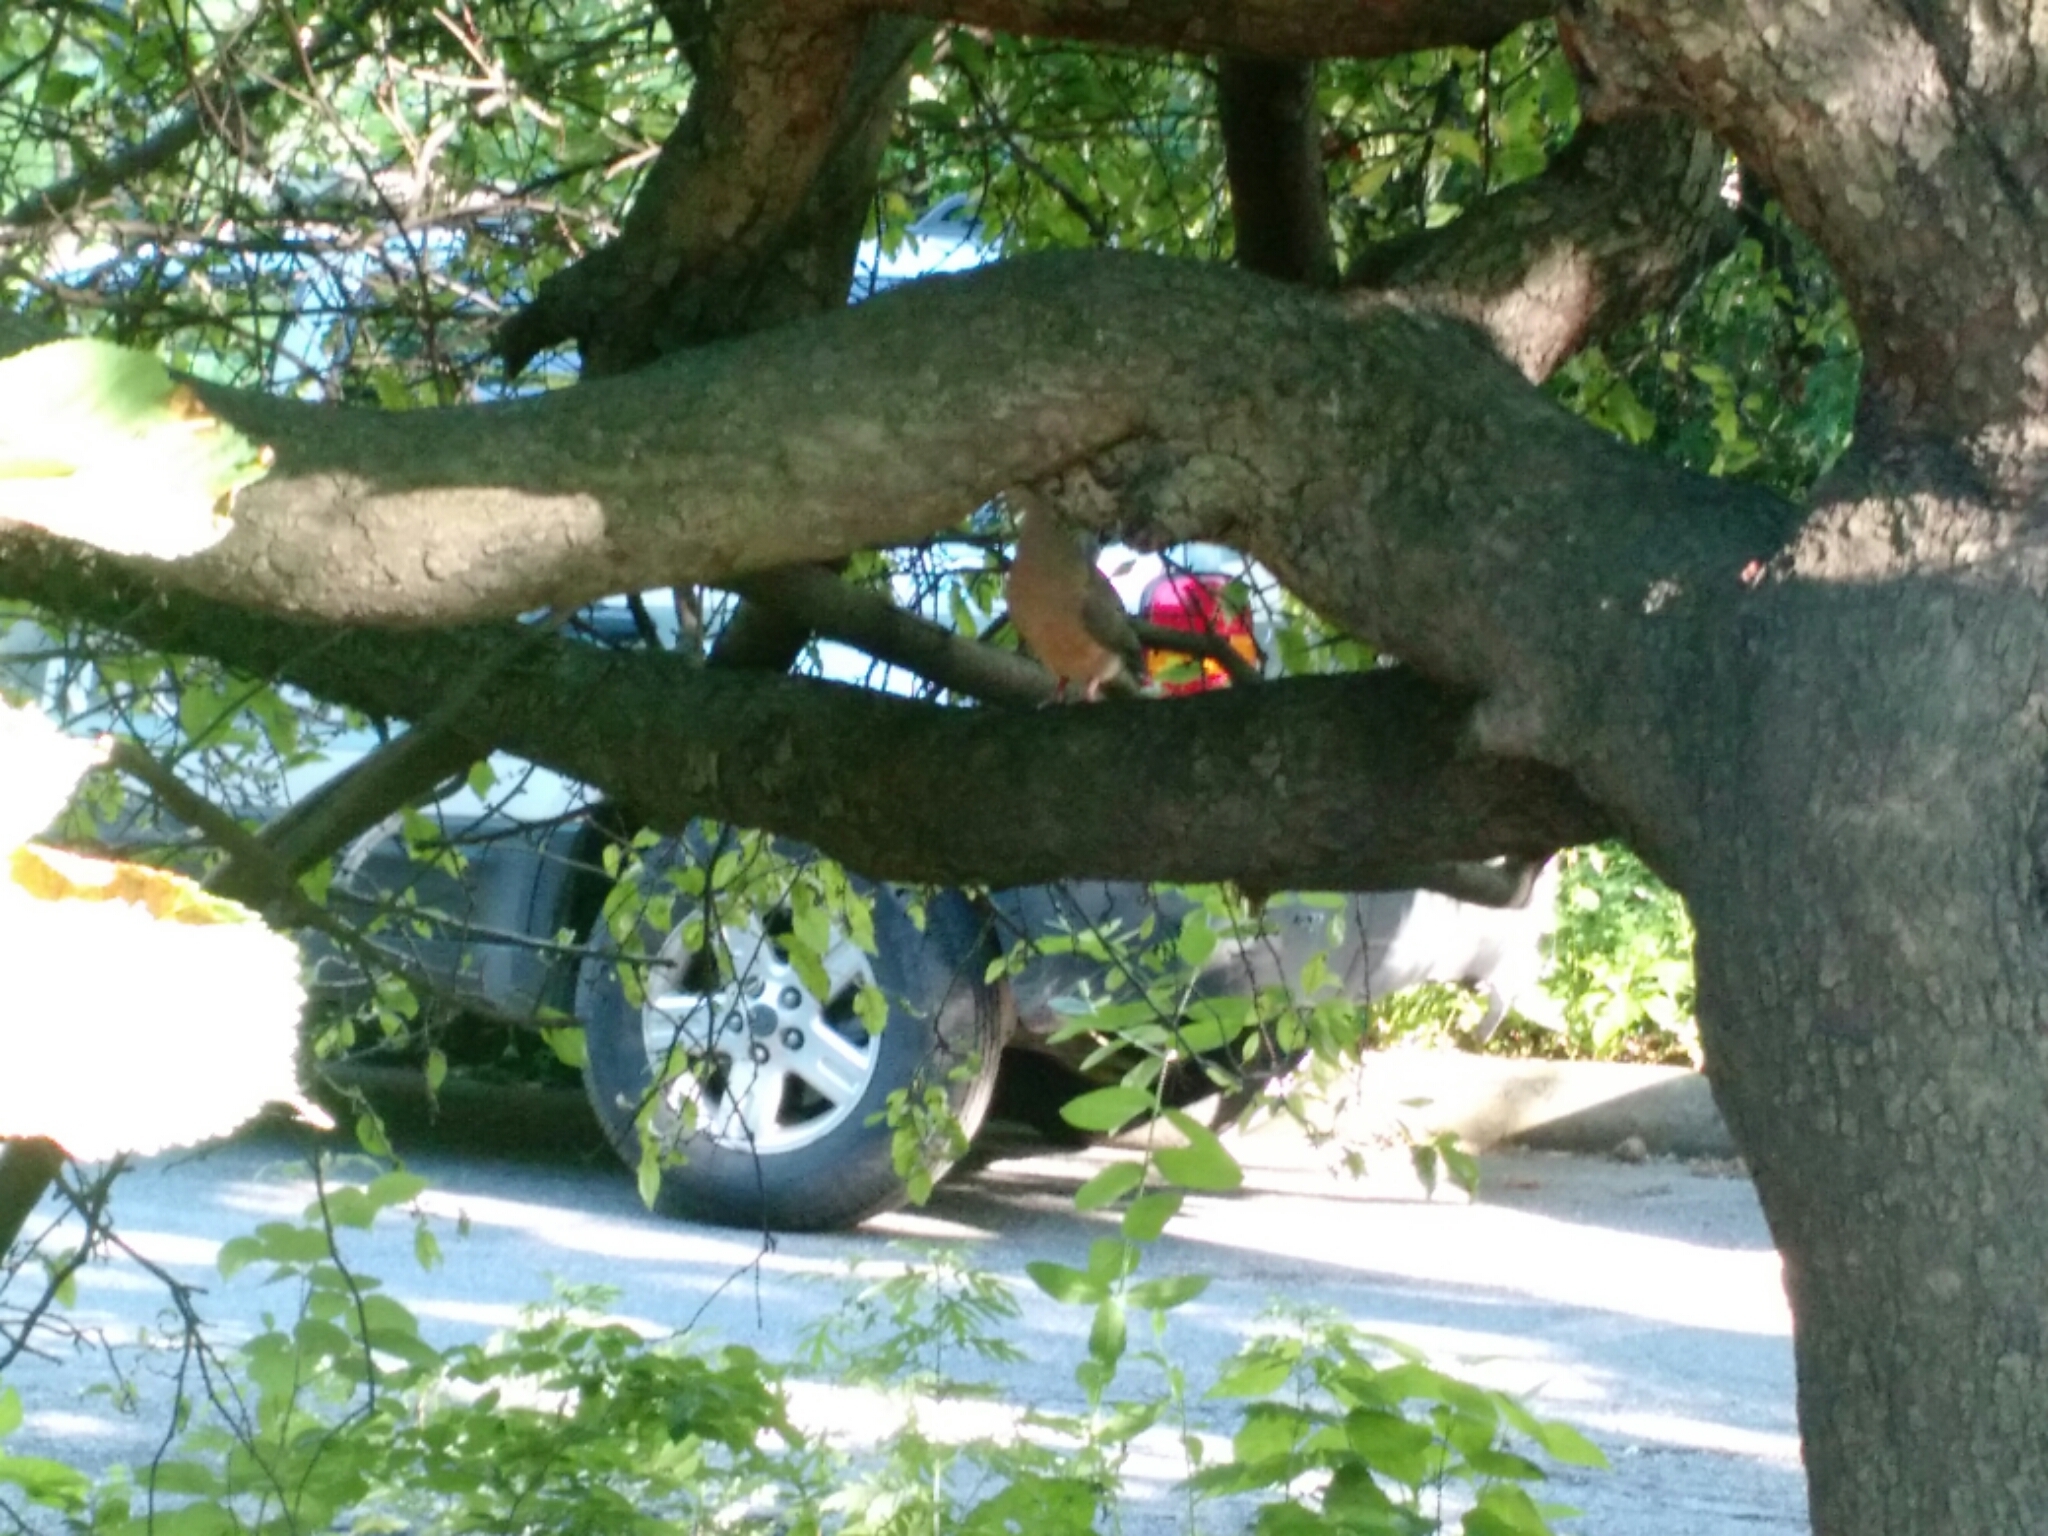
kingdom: Animalia
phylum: Chordata
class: Aves
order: Columbiformes
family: Columbidae
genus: Zenaida
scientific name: Zenaida macroura
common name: Mourning dove
